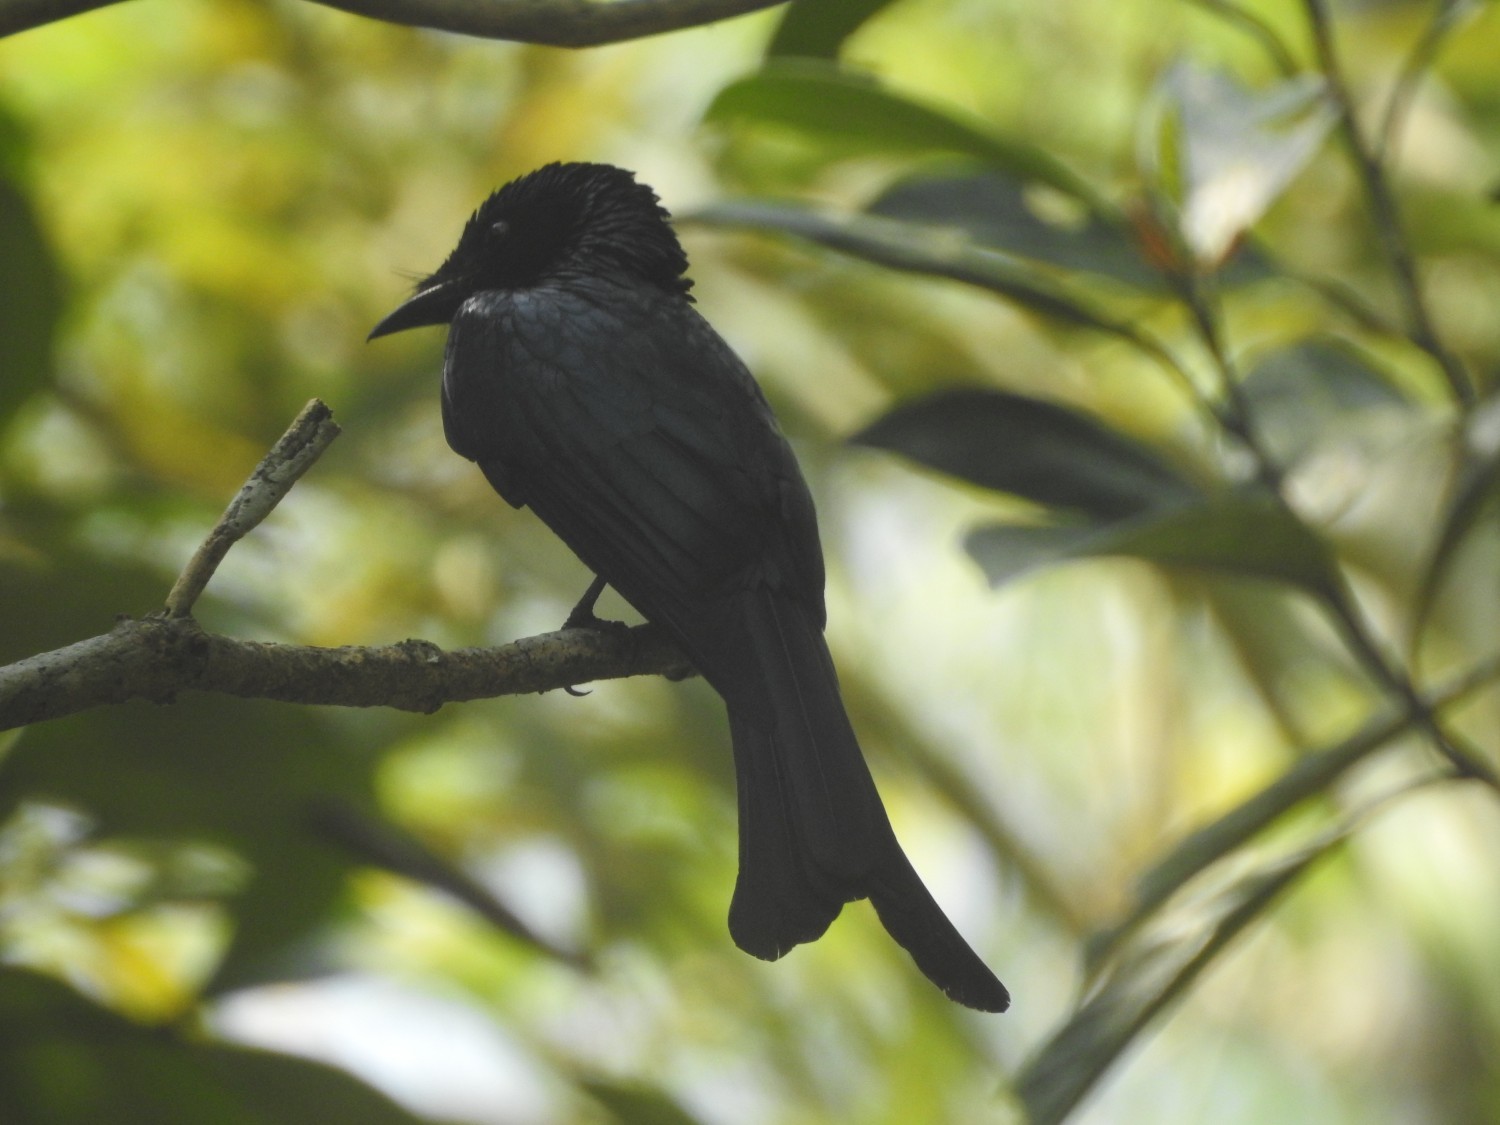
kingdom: Animalia
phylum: Chordata
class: Aves
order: Passeriformes
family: Dicruridae
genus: Dicrurus
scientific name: Dicrurus aeneus
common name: Bronzed drongo
